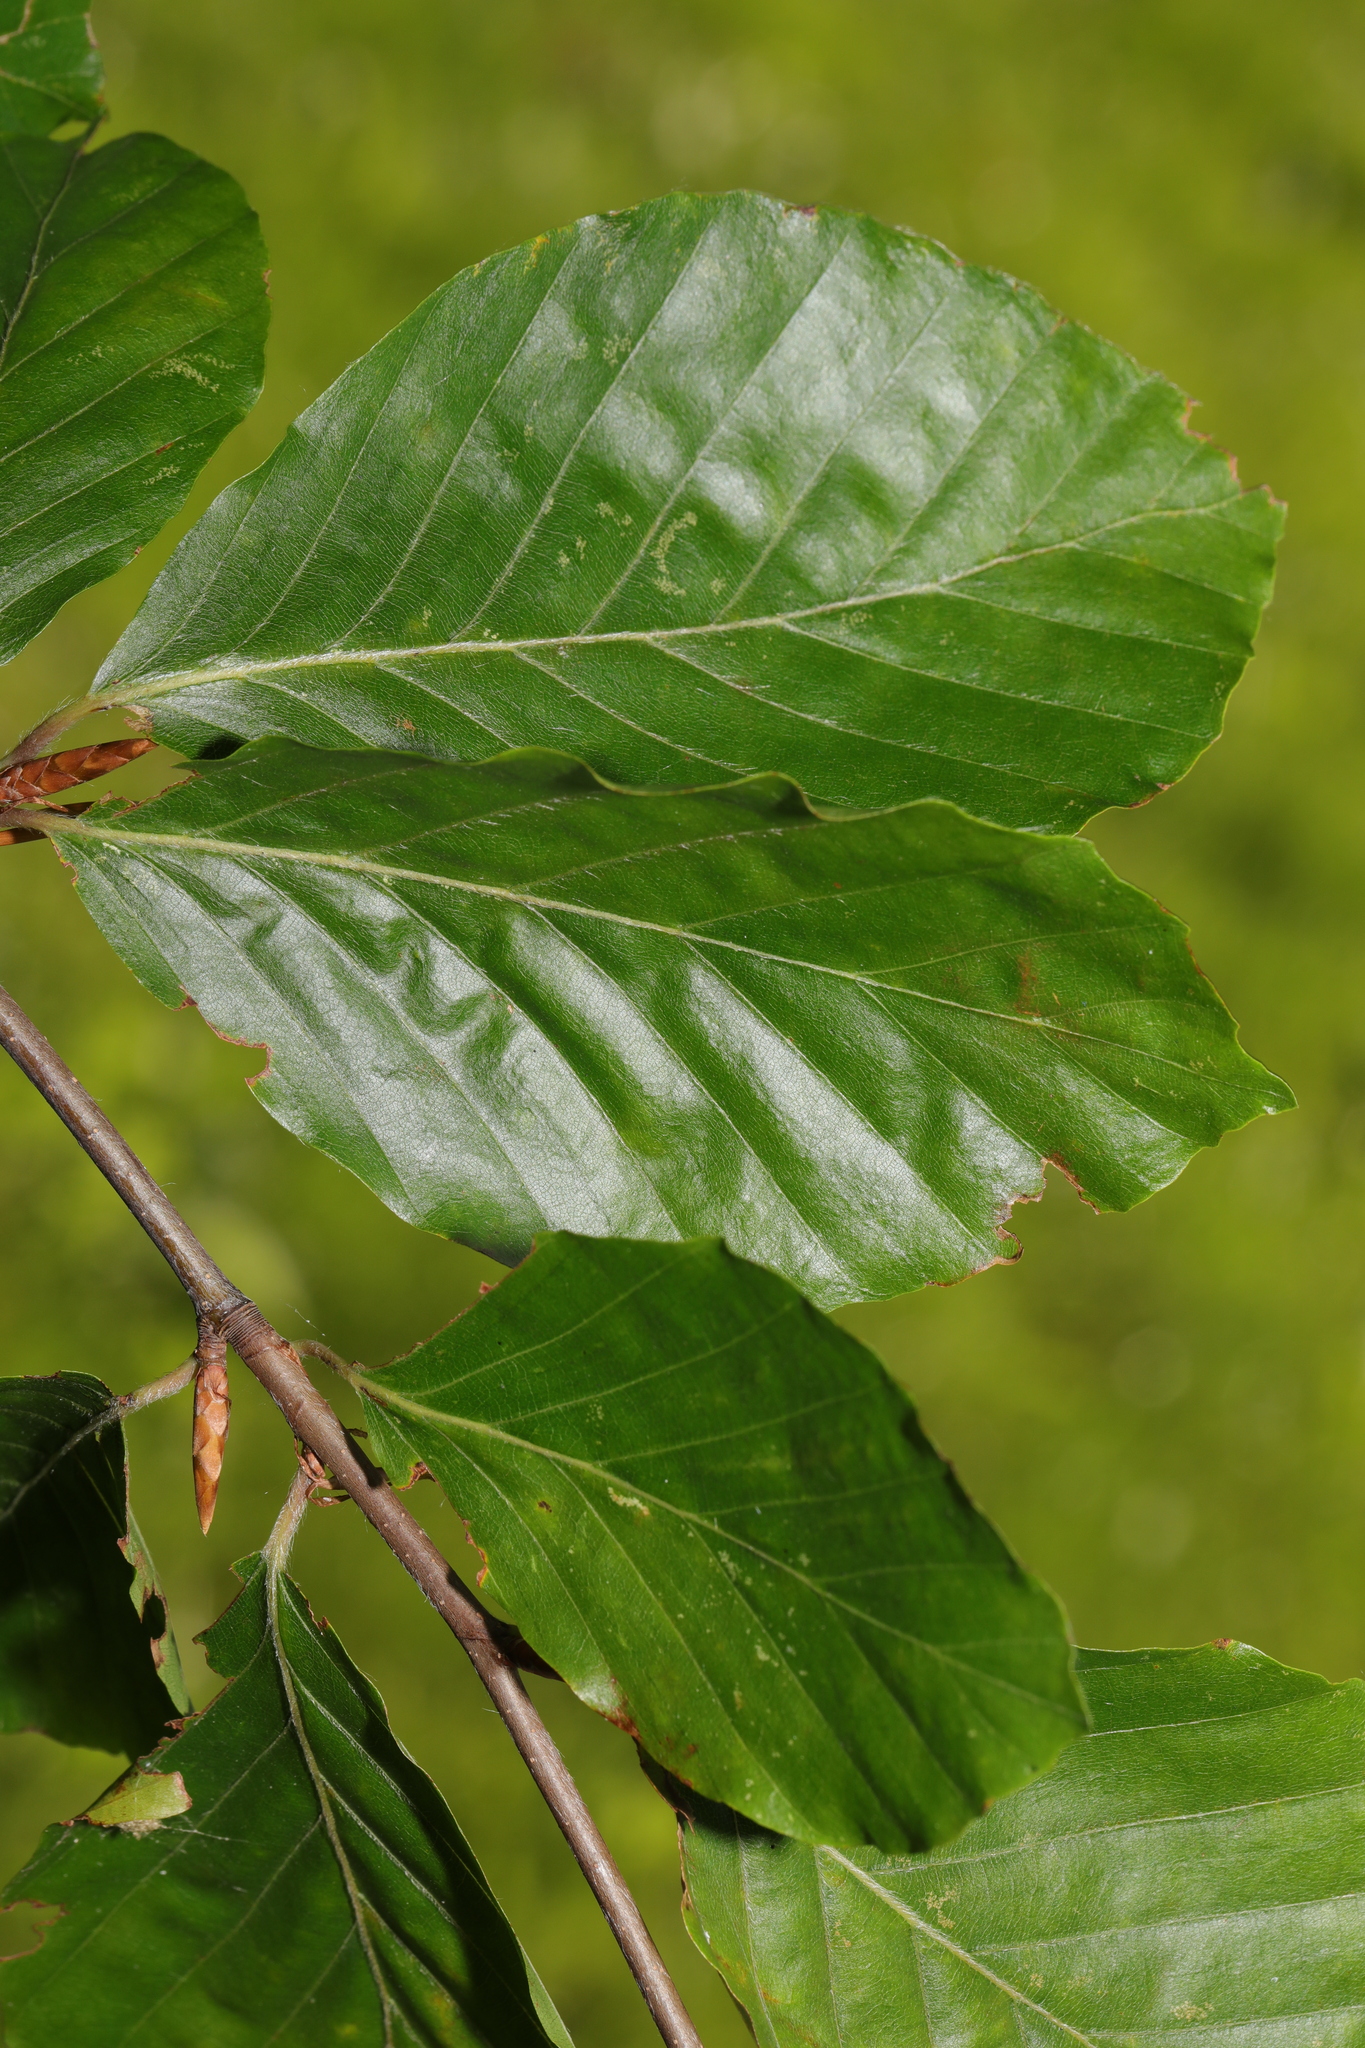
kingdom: Plantae
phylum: Tracheophyta
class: Magnoliopsida
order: Fagales
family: Fagaceae
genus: Fagus
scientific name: Fagus sylvatica
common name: Beech
